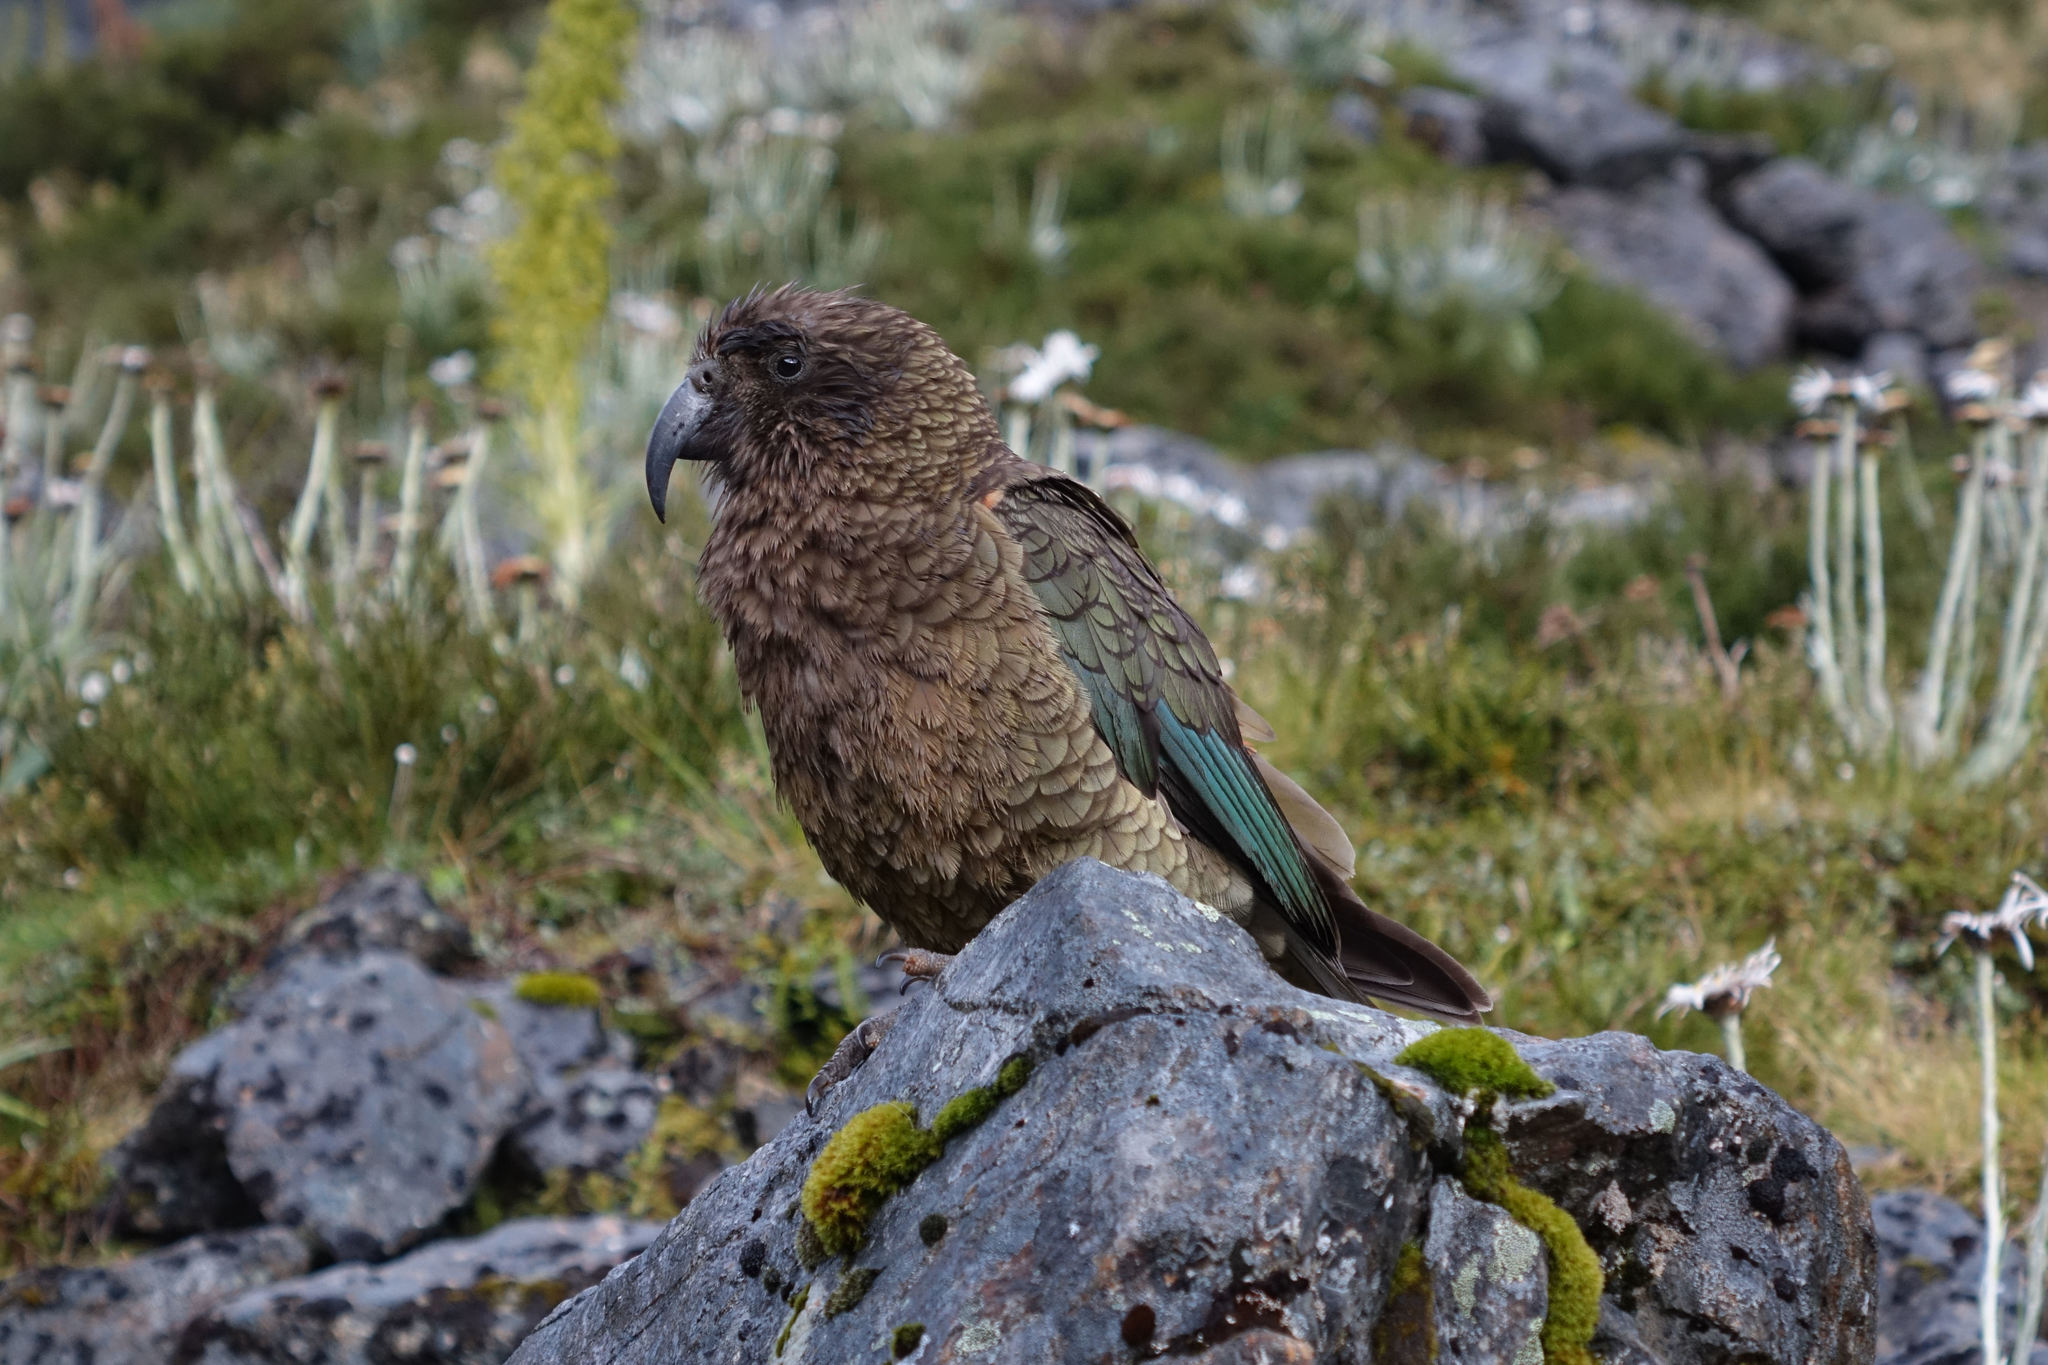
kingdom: Animalia
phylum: Chordata
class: Aves
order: Psittaciformes
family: Psittacidae
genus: Nestor
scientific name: Nestor notabilis
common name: Kea
